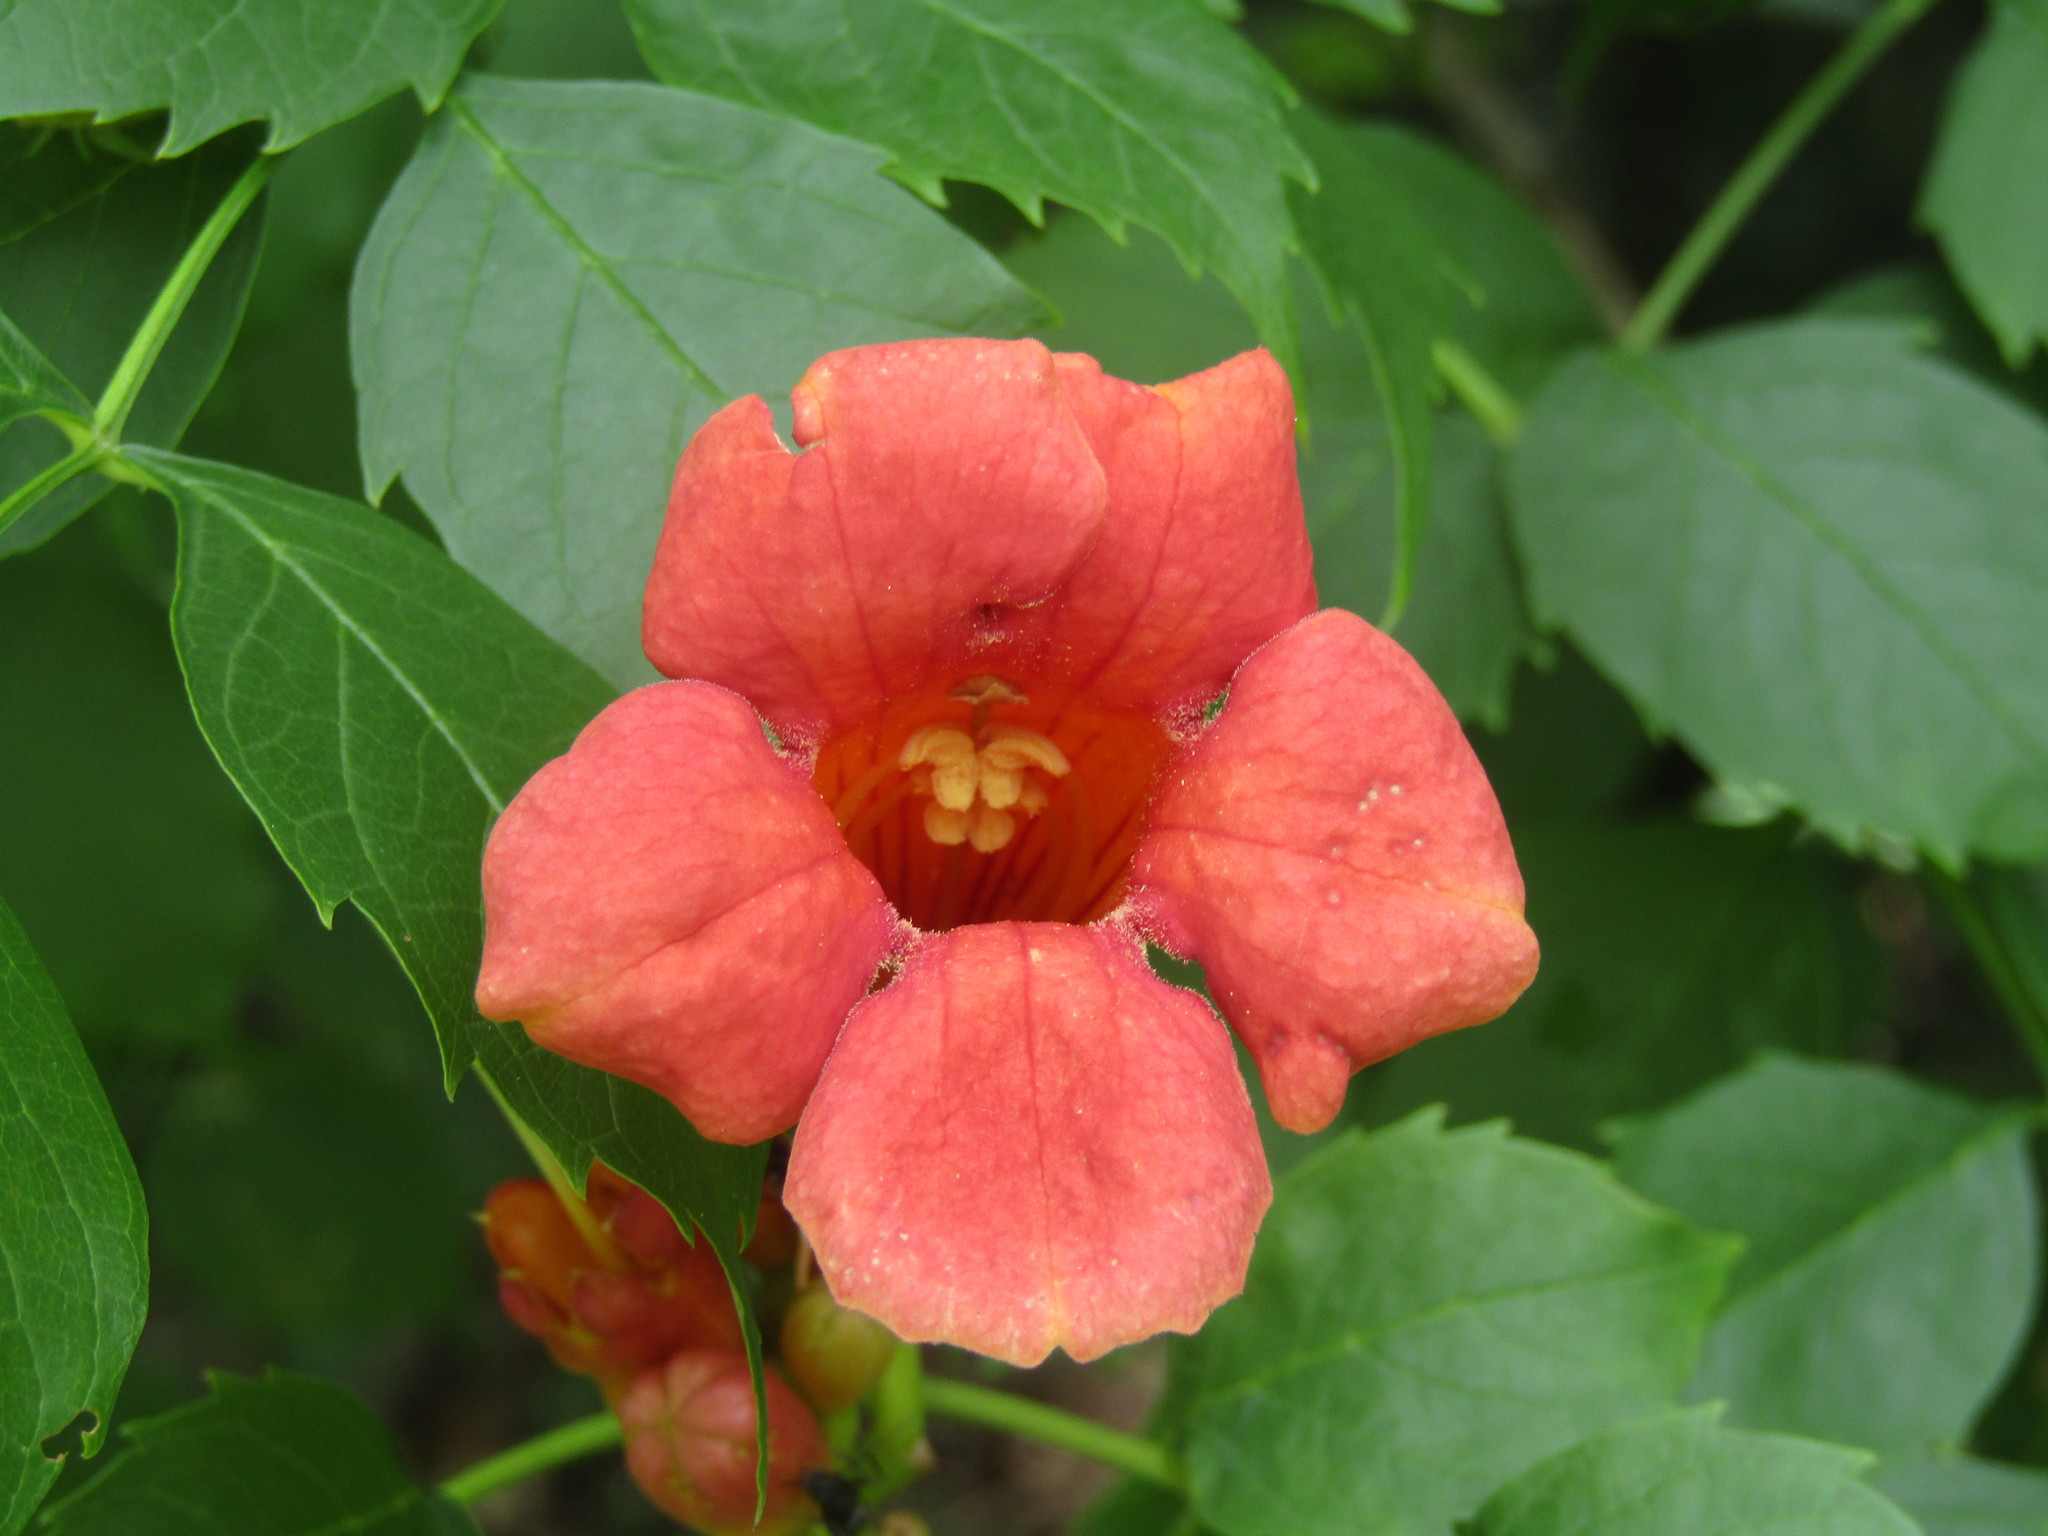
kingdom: Plantae
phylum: Tracheophyta
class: Magnoliopsida
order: Lamiales
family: Bignoniaceae
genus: Campsis
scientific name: Campsis radicans
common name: Trumpet-creeper
